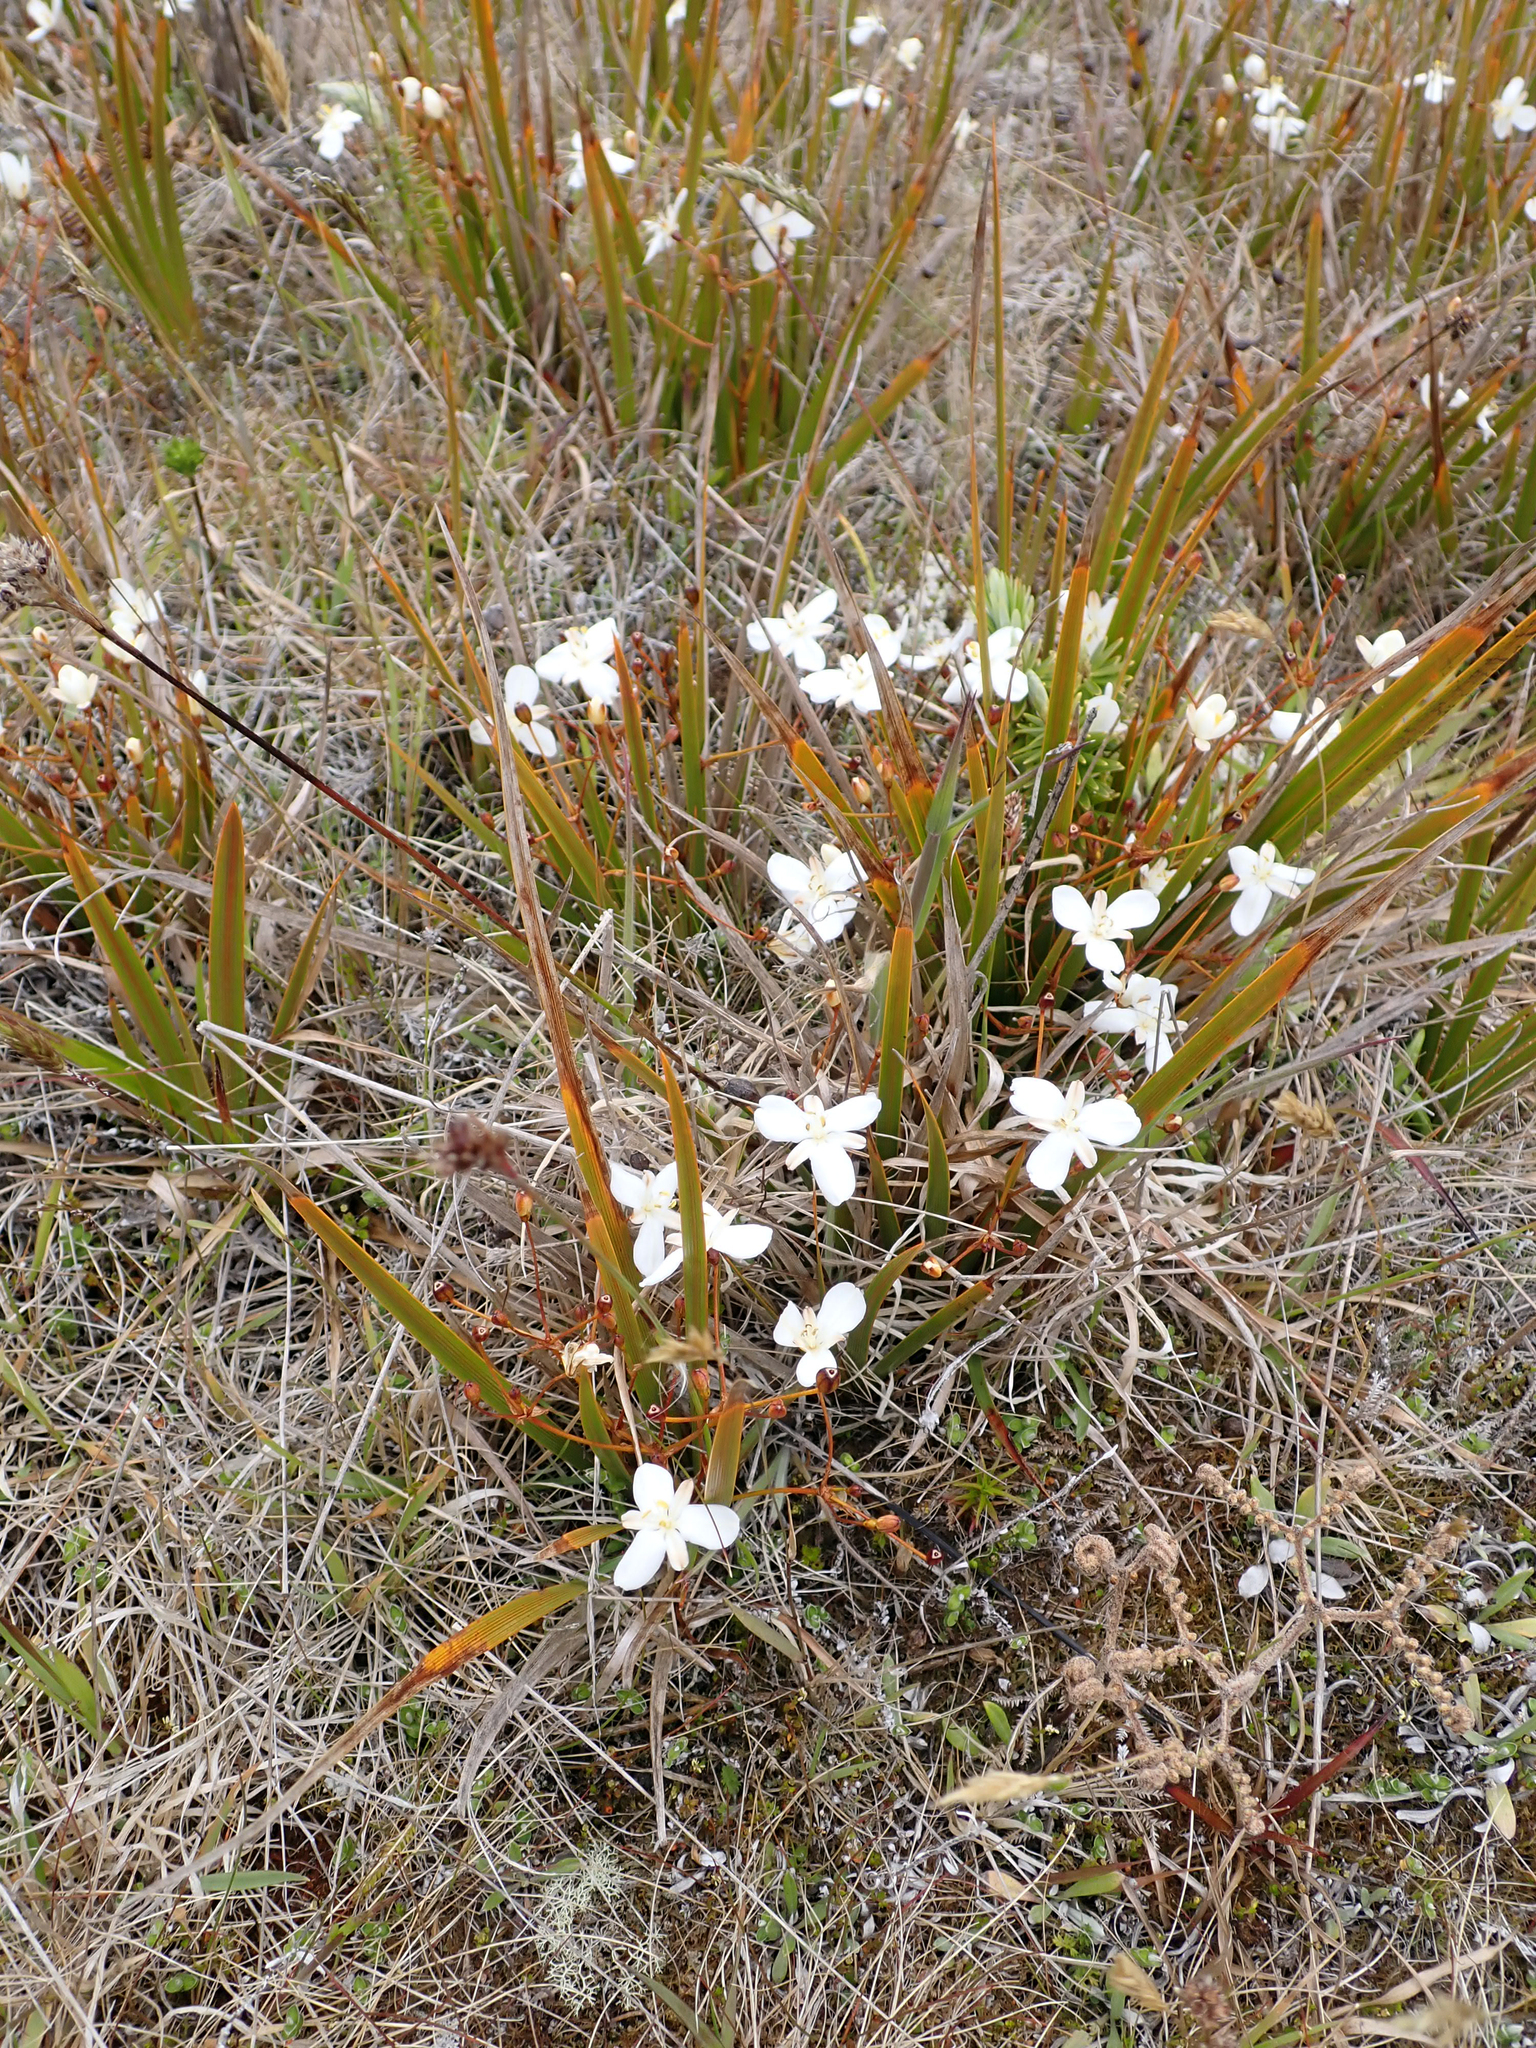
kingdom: Plantae
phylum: Tracheophyta
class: Liliopsida
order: Asparagales
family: Iridaceae
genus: Libertia
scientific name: Libertia peregrinans
